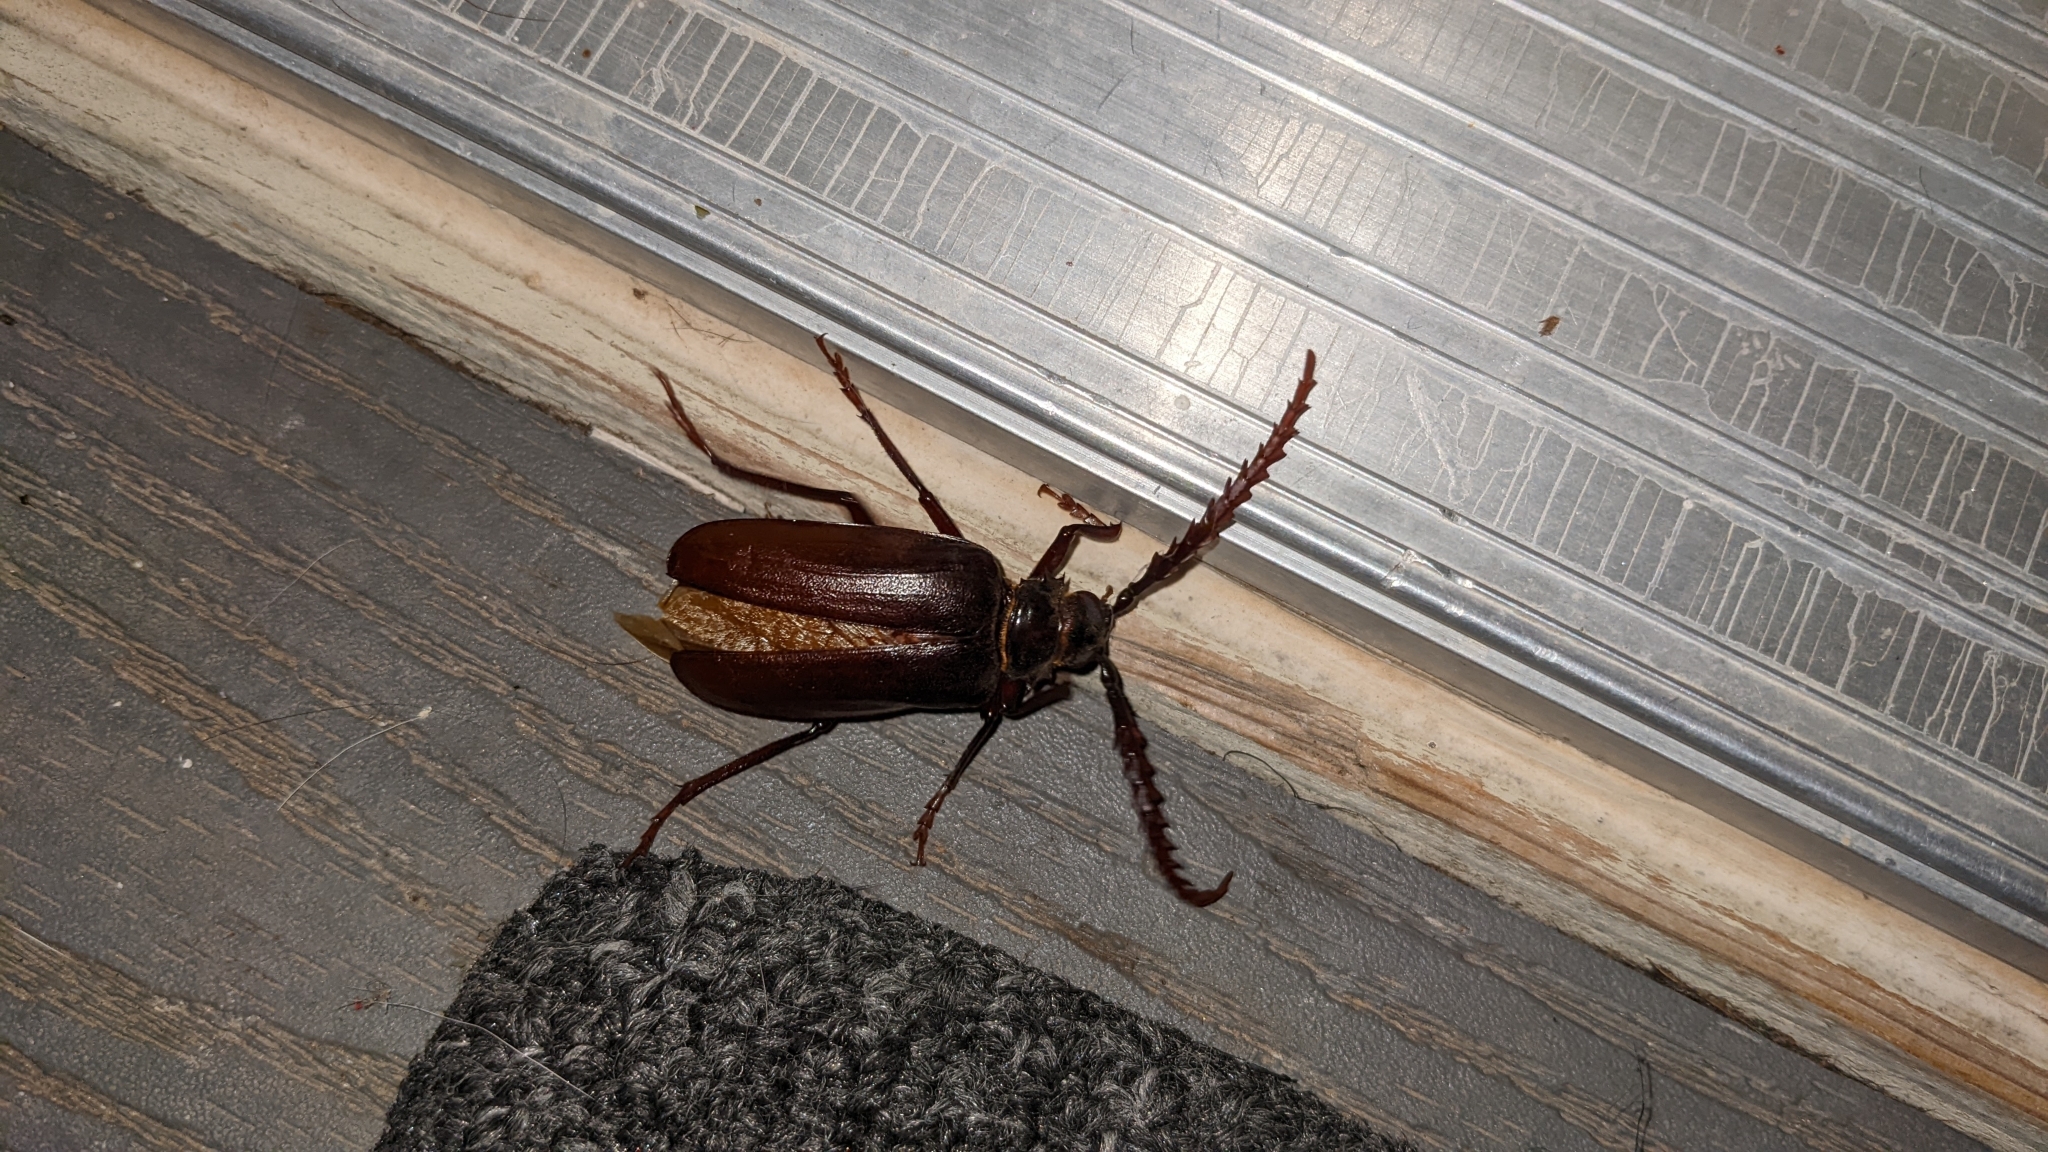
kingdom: Animalia
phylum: Arthropoda
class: Insecta
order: Coleoptera
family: Cerambycidae
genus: Prionus
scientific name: Prionus californicus
